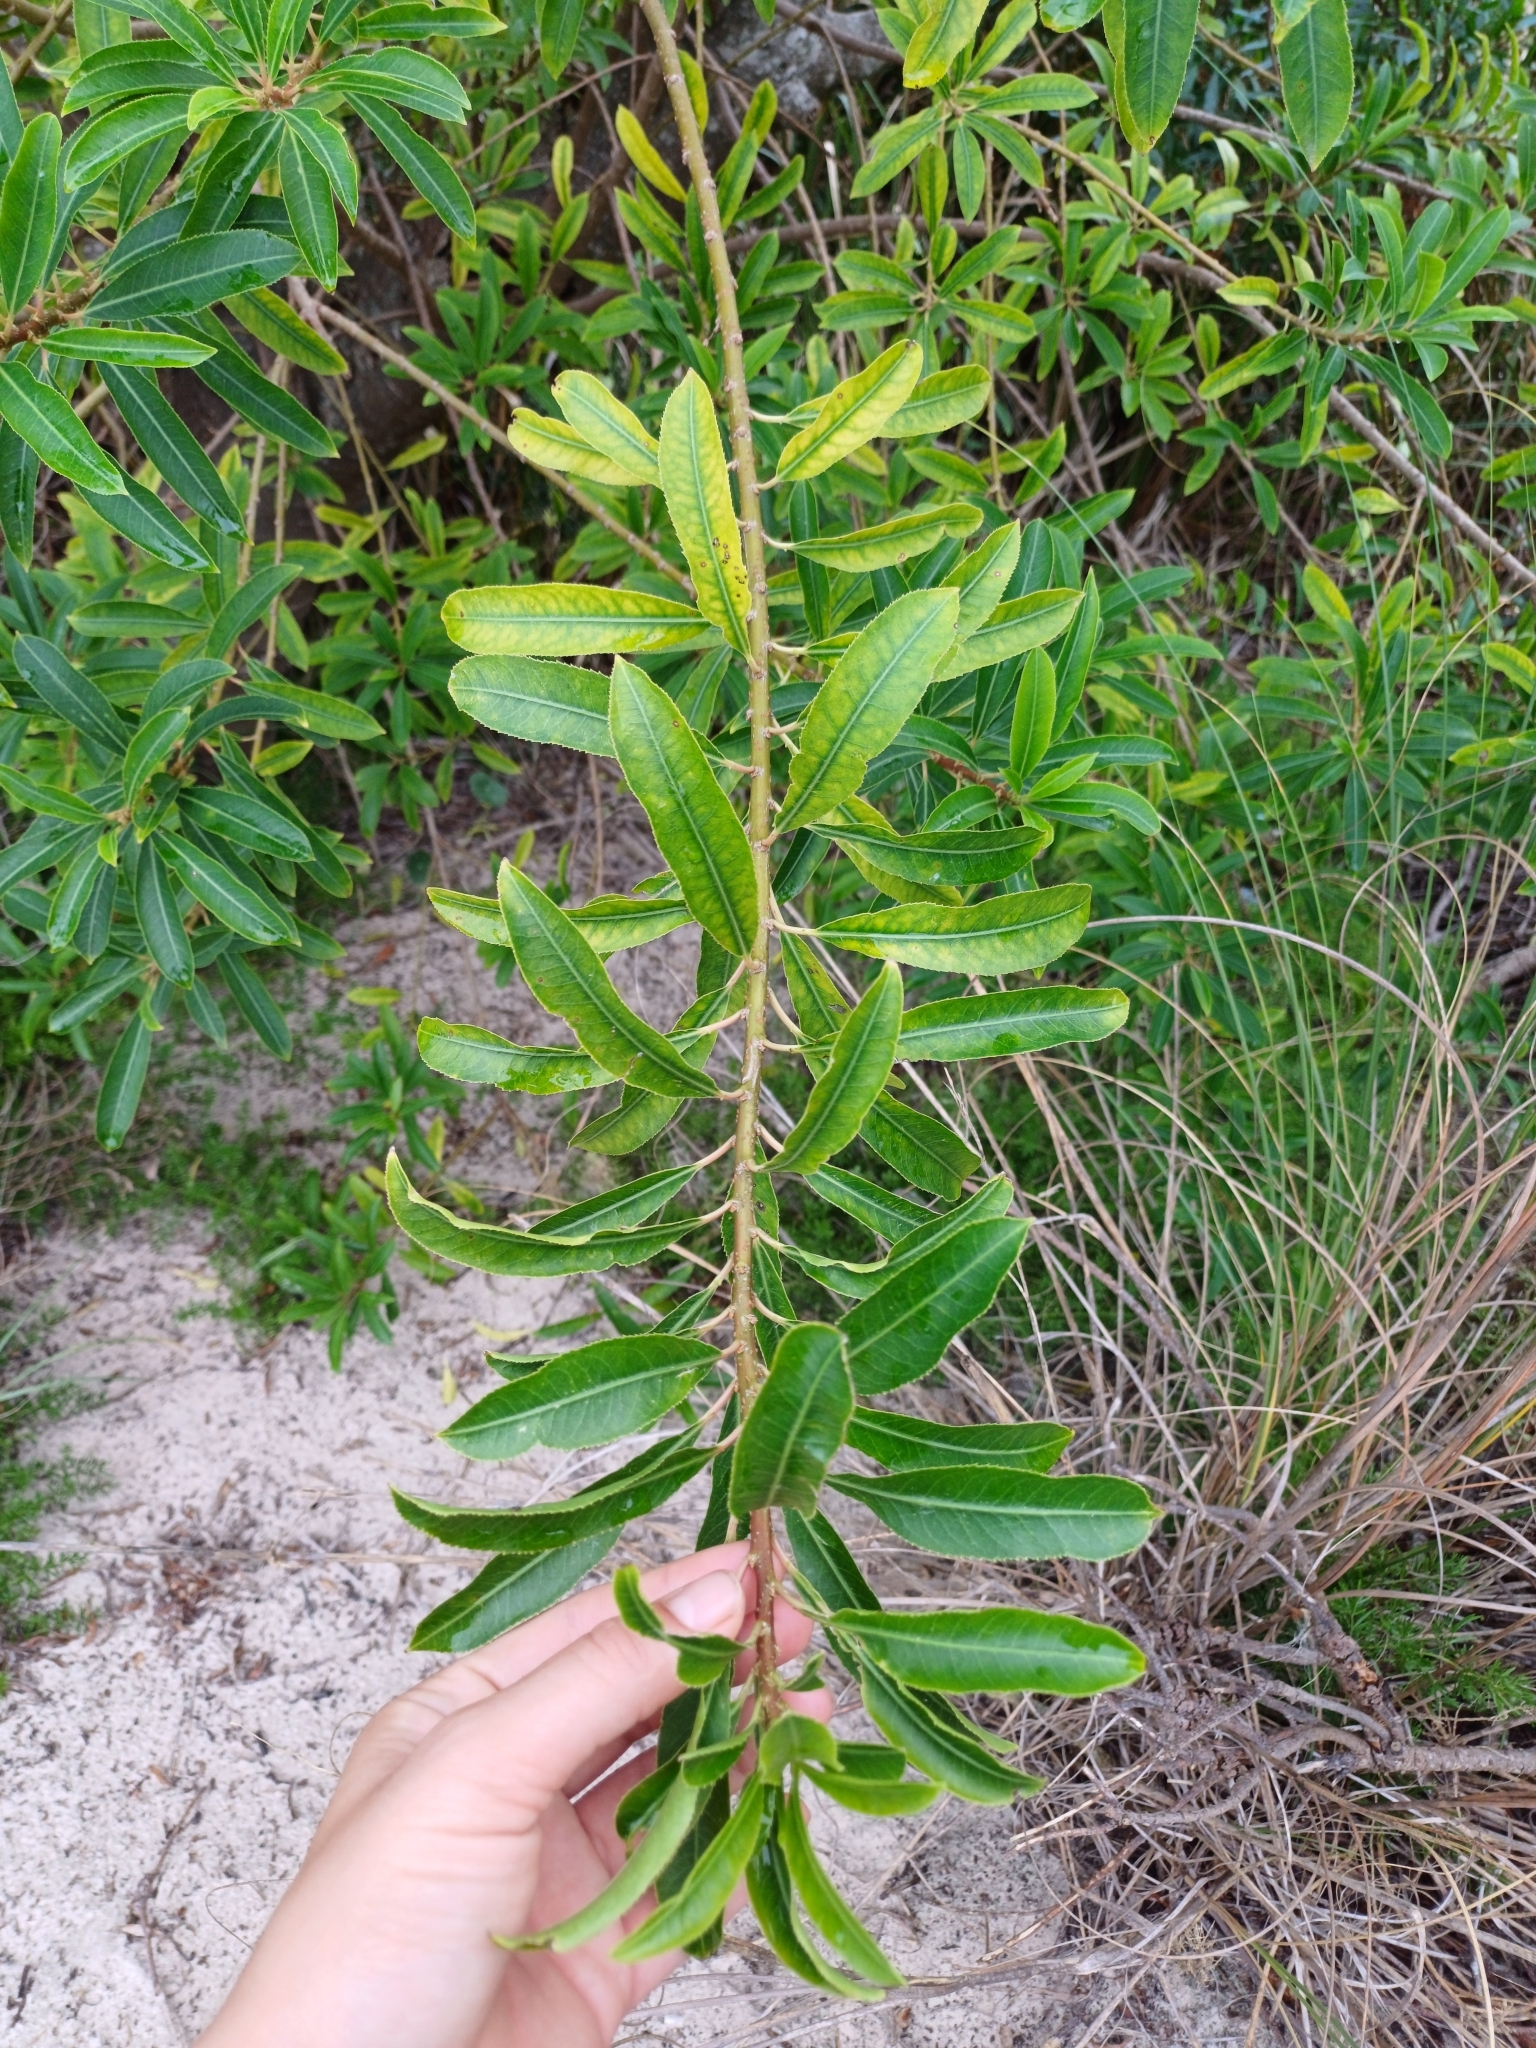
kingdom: Plantae
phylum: Tracheophyta
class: Magnoliopsida
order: Malpighiales
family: Euphorbiaceae
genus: Sapium
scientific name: Sapium glandulosum
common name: Milktree
